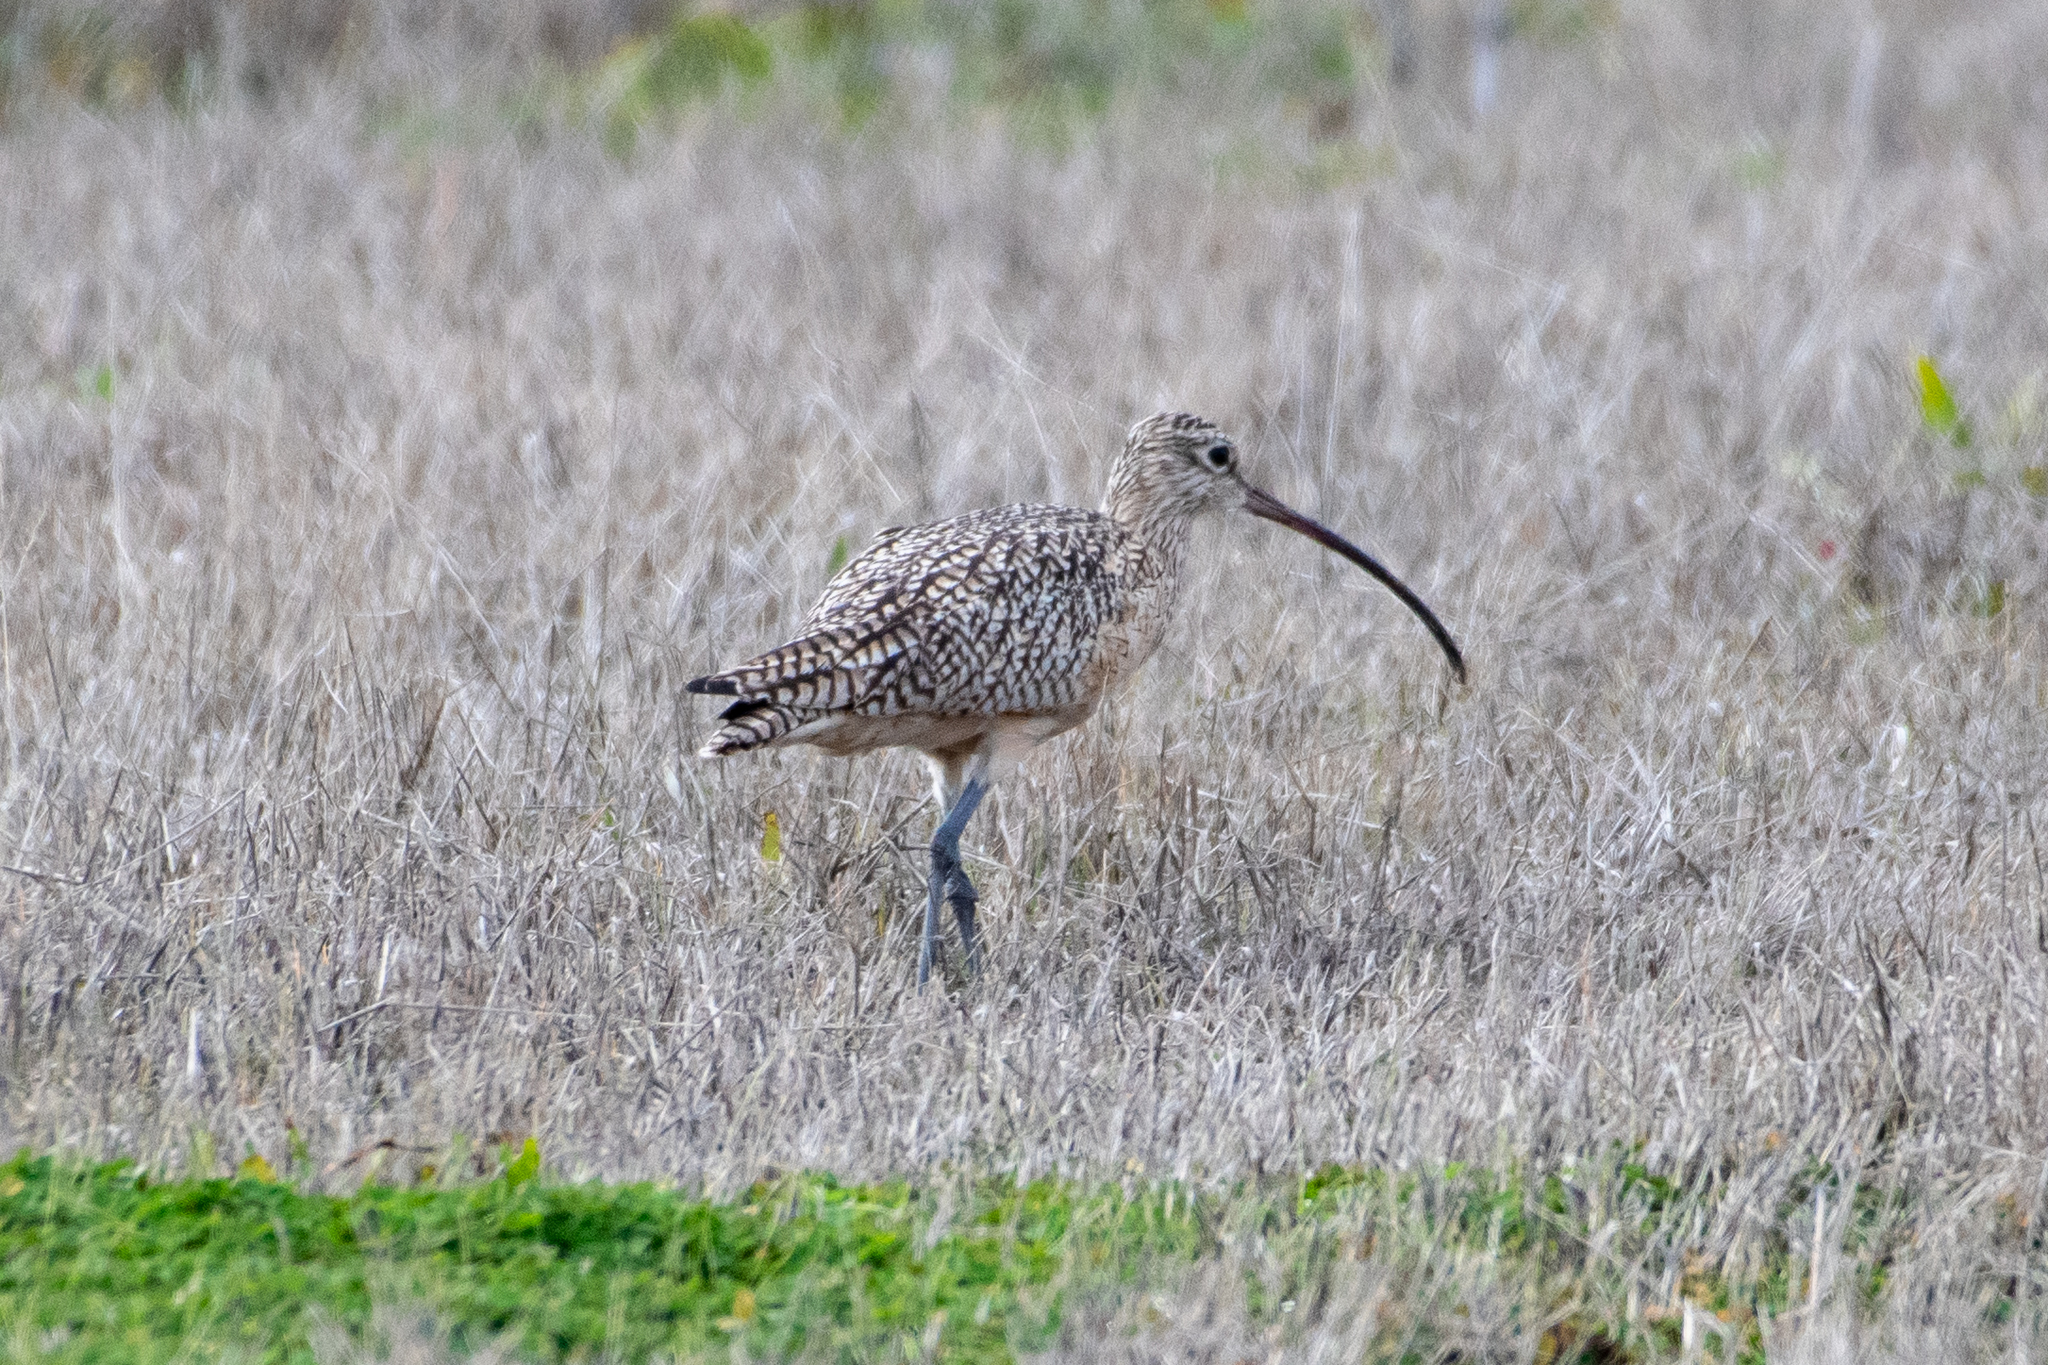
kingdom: Animalia
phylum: Chordata
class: Aves
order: Charadriiformes
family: Scolopacidae
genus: Numenius
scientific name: Numenius americanus
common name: Long-billed curlew
